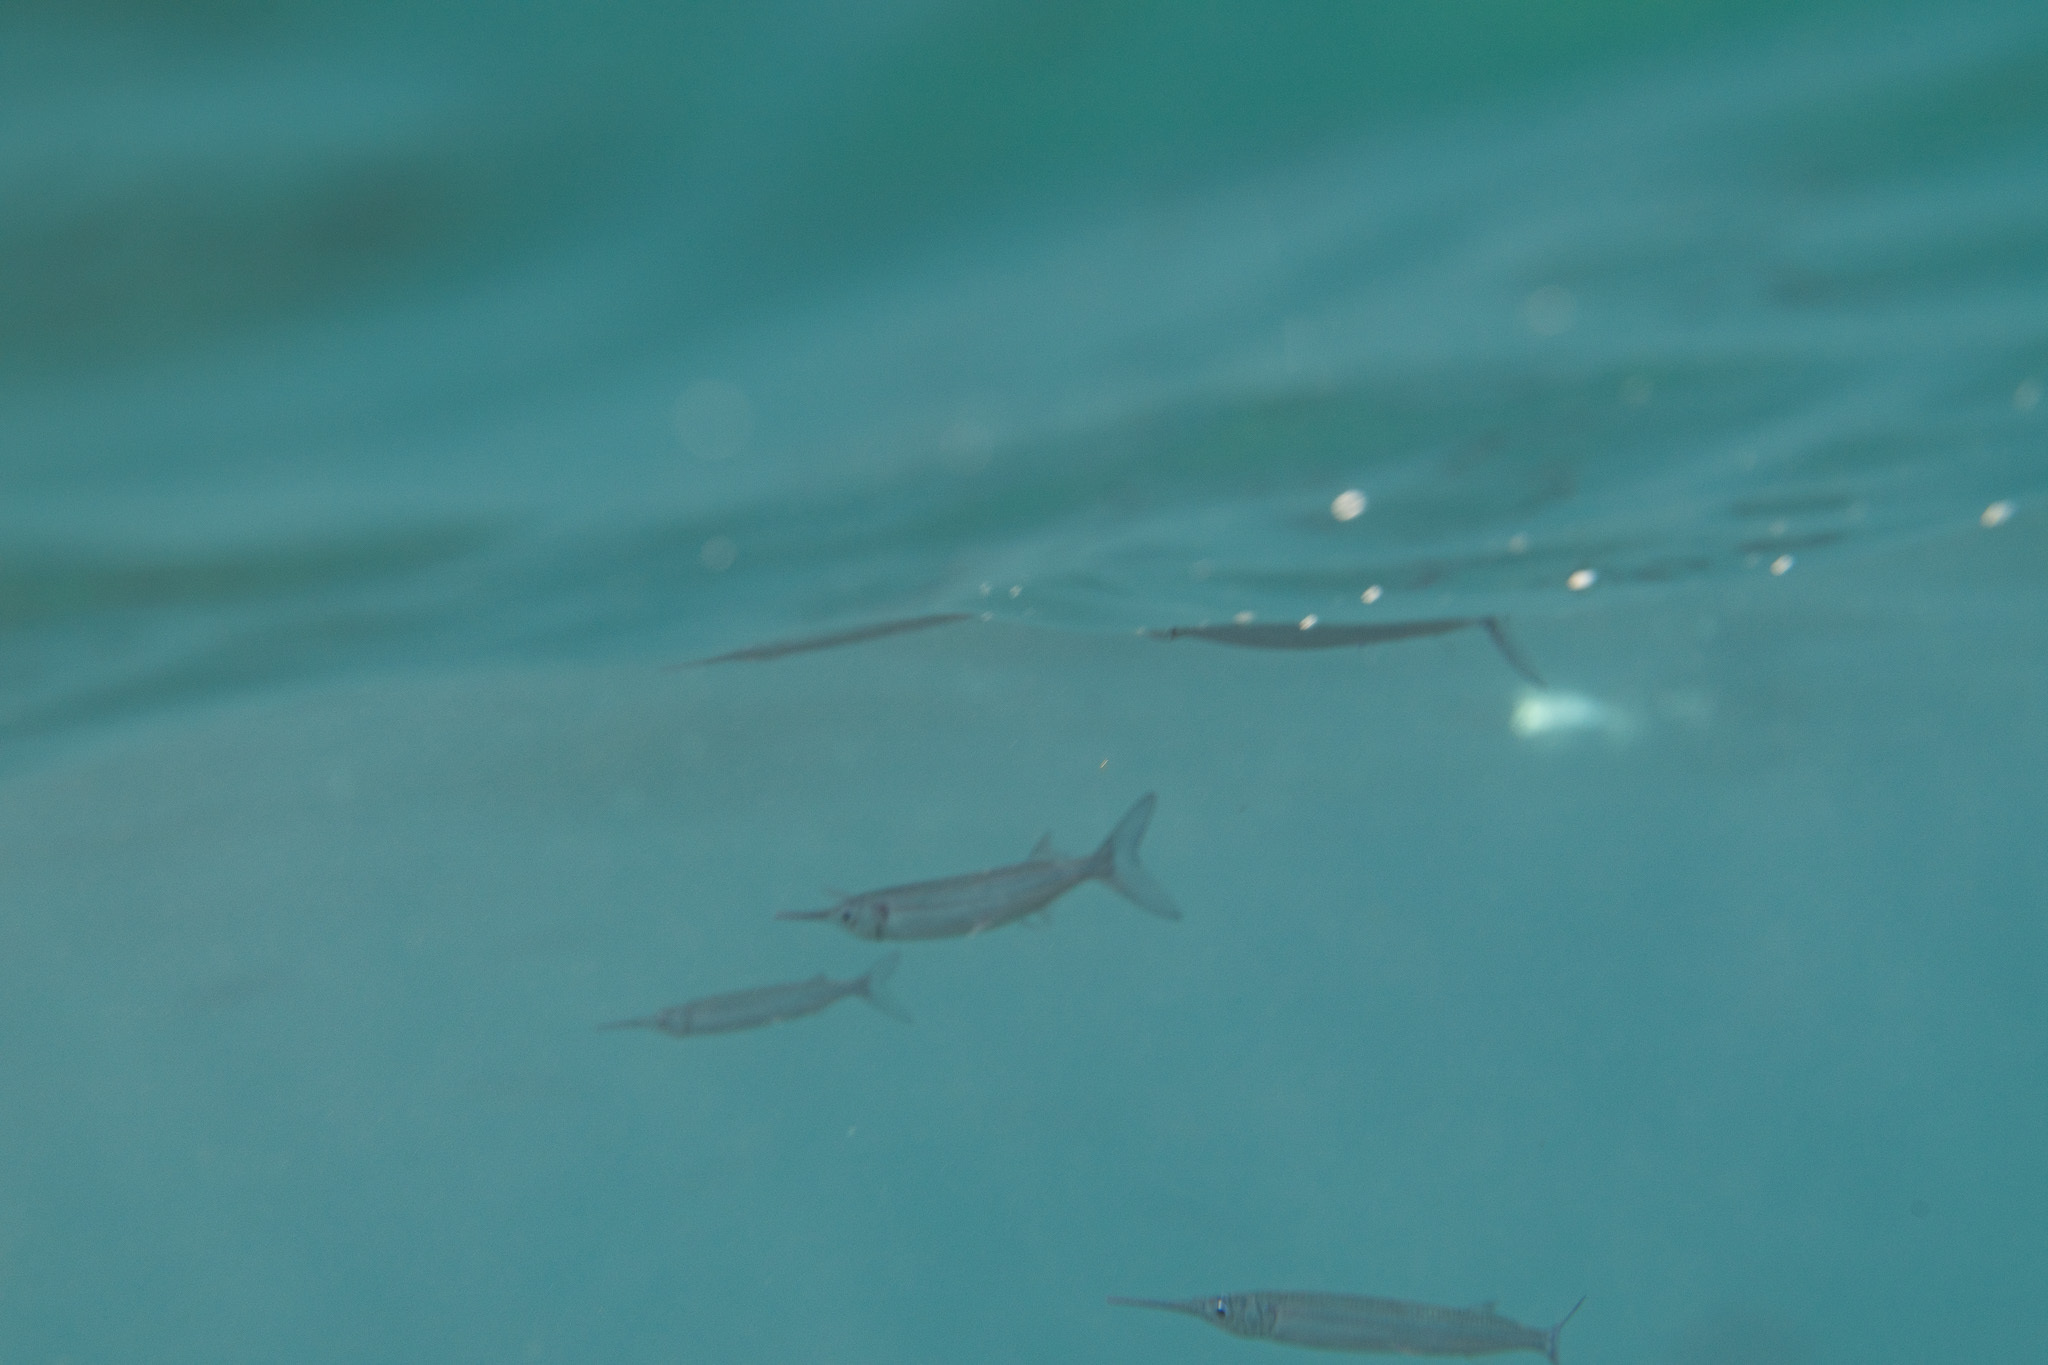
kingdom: Animalia
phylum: Chordata
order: Beloniformes
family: Hemiramphidae
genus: Hyporhamphus
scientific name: Hyporhamphus acutus
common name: Acute halfbeak
